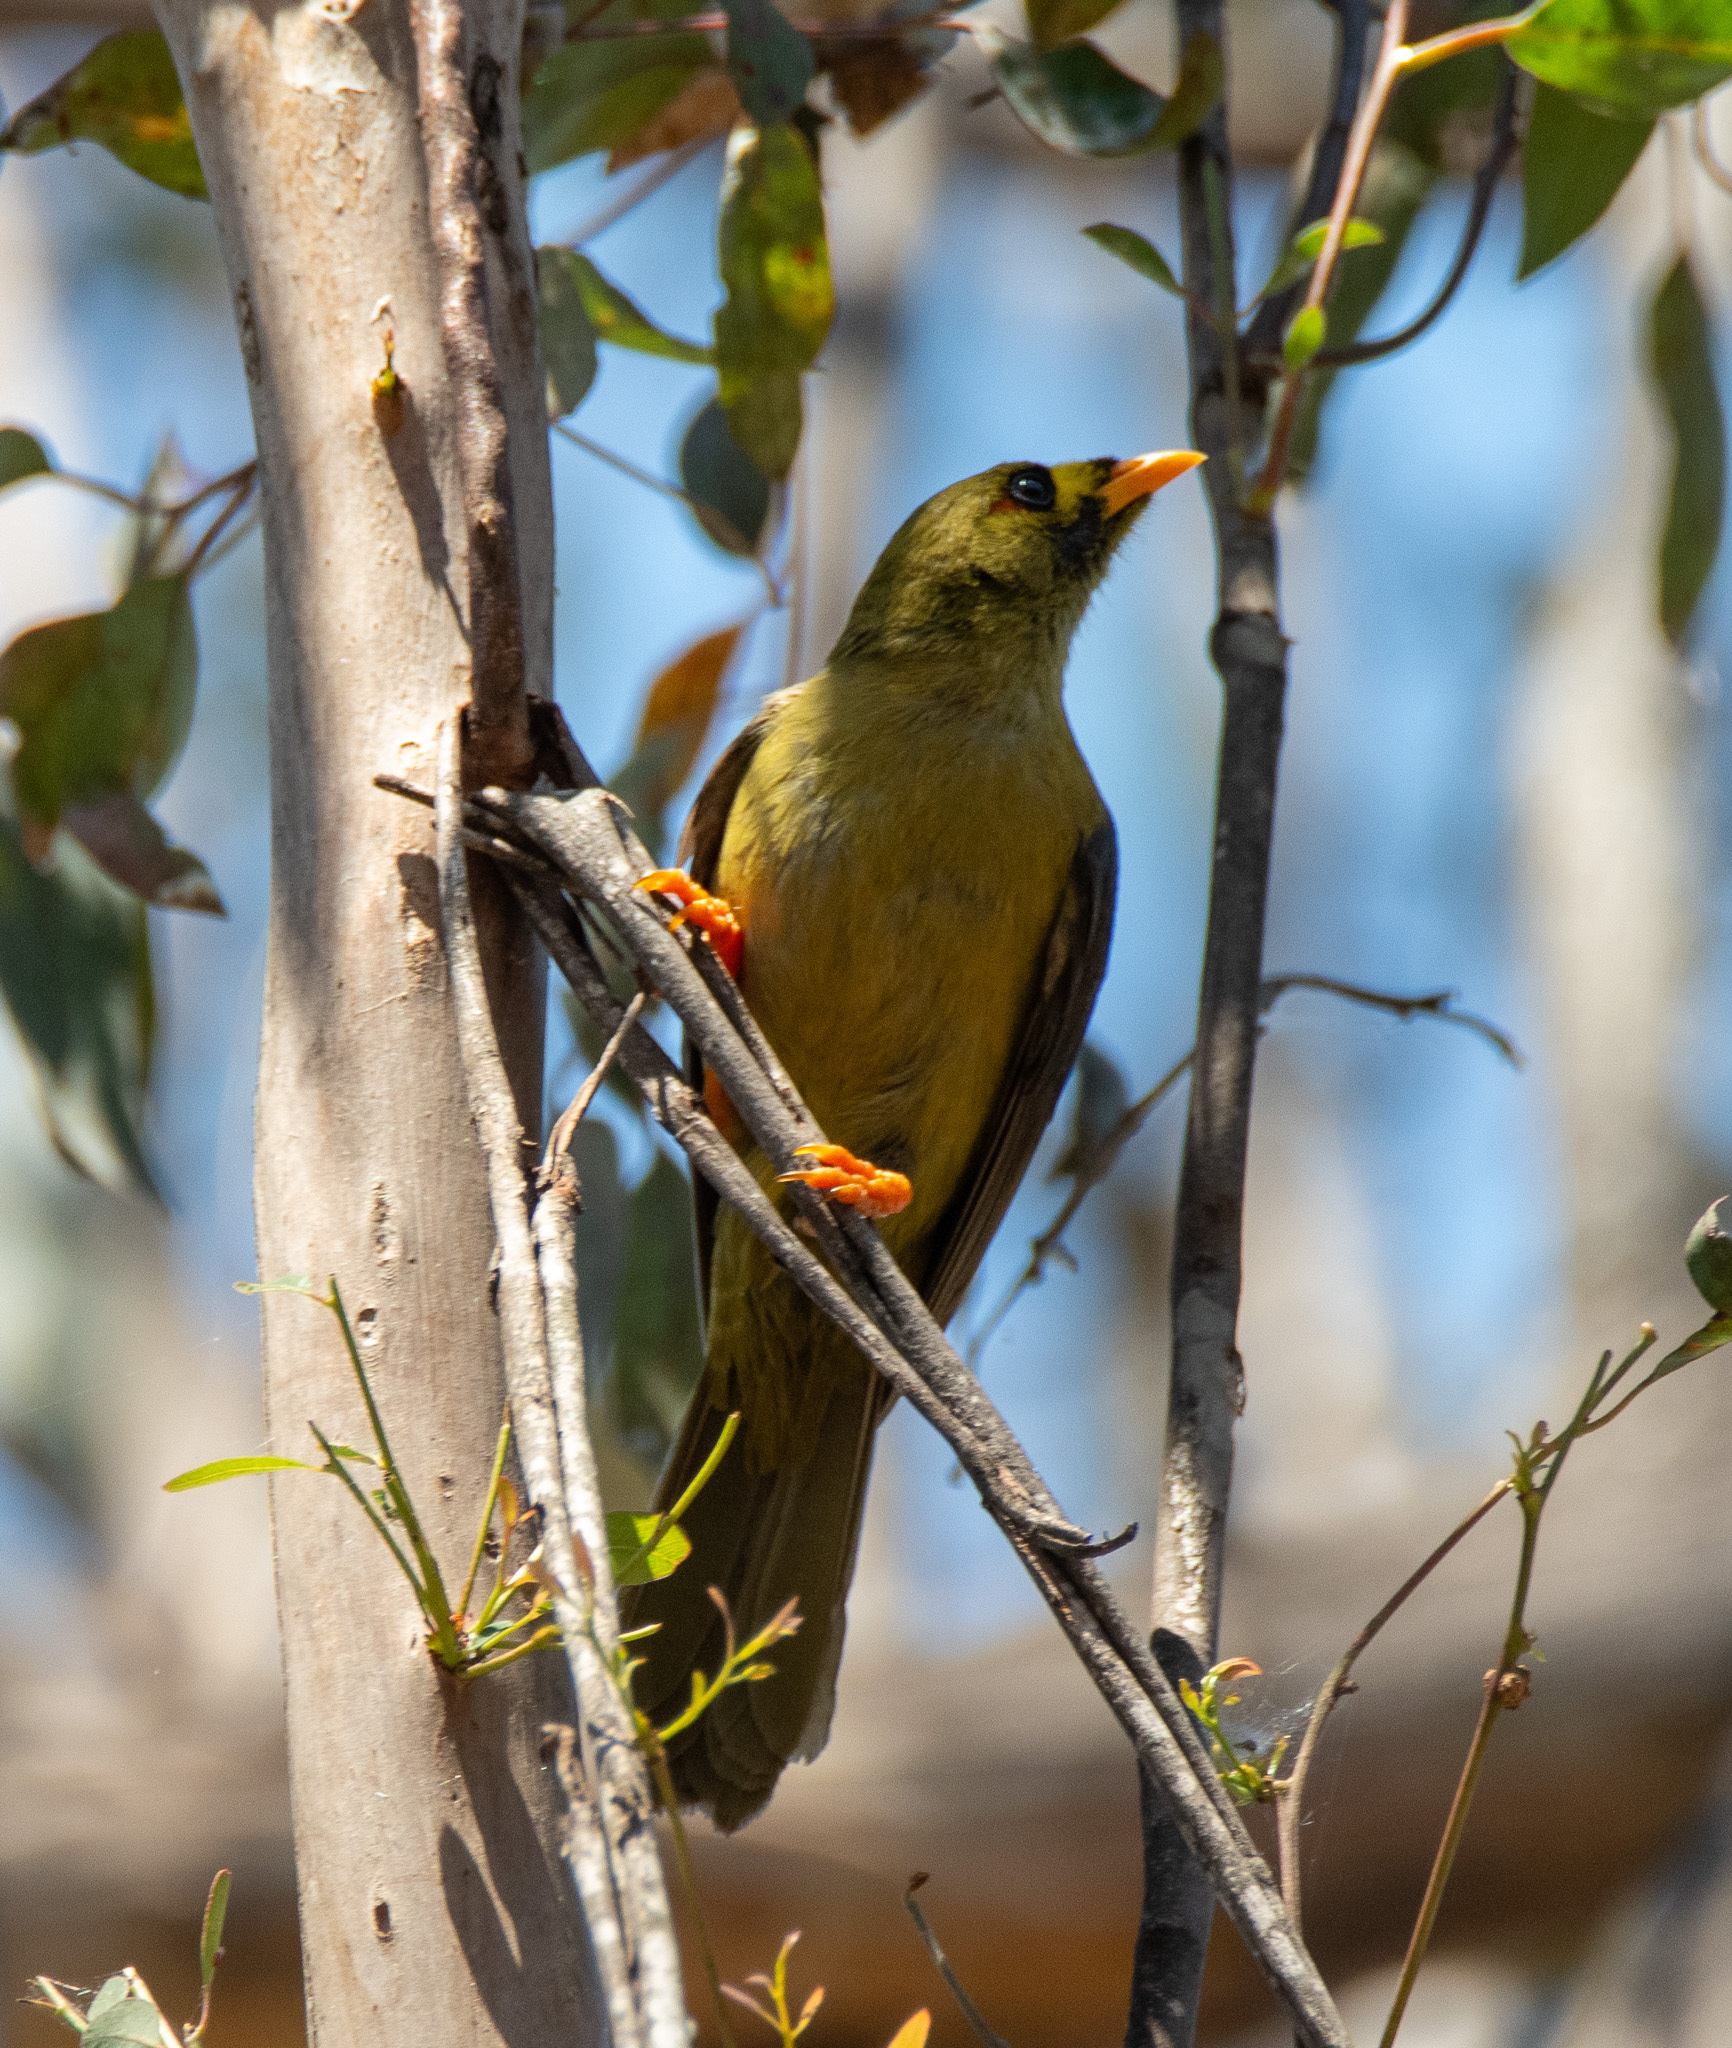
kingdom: Animalia
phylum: Chordata
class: Aves
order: Passeriformes
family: Meliphagidae
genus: Manorina
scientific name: Manorina melanophrys
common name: Bell miner
